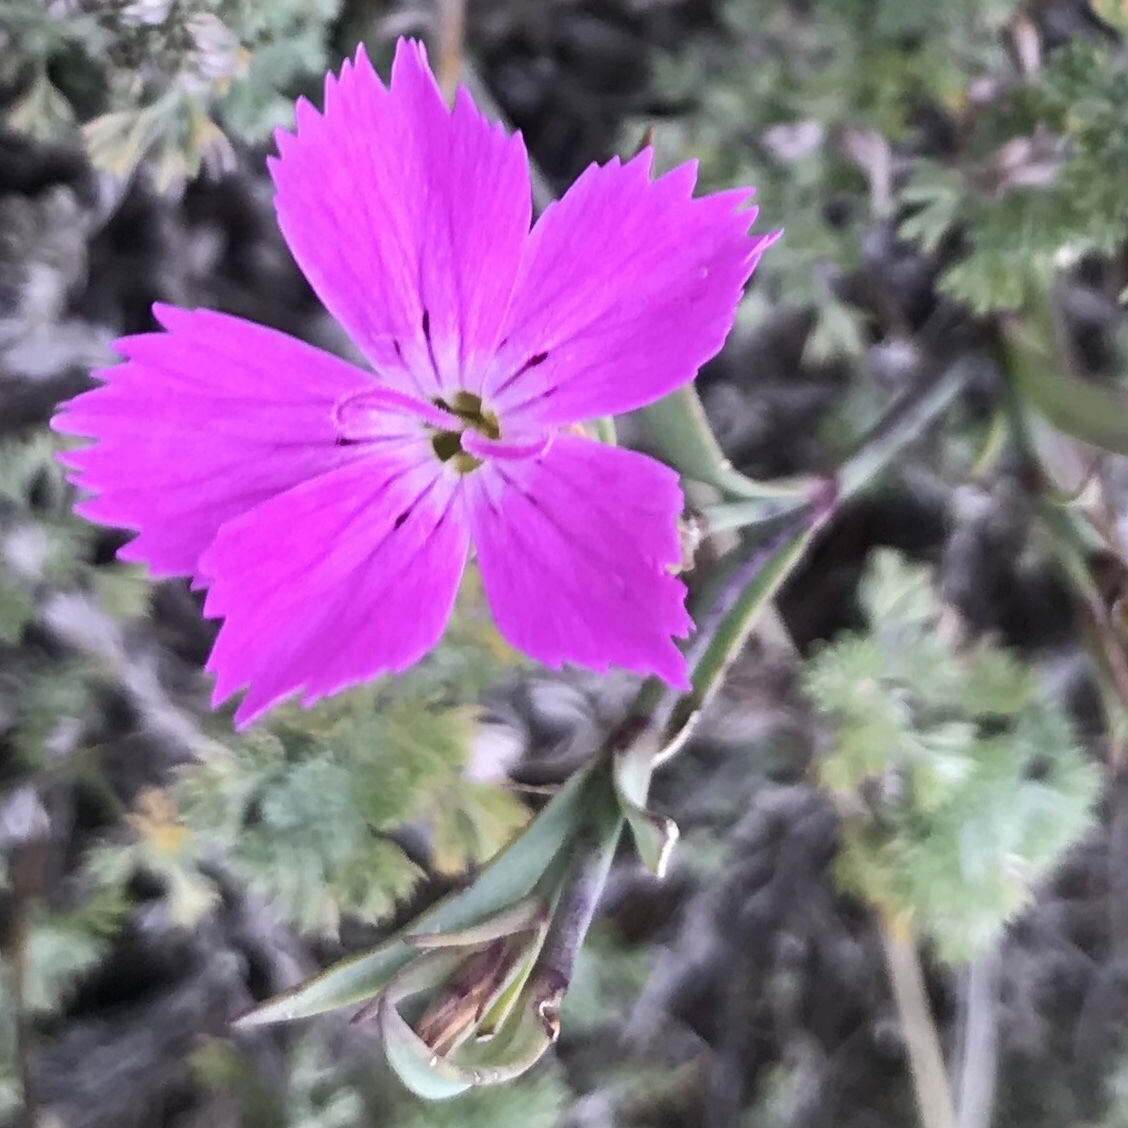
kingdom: Plantae
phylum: Tracheophyta
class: Magnoliopsida
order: Caryophyllales
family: Caryophyllaceae
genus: Dianthus
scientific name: Dianthus chinensis
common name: Rainbow pink
